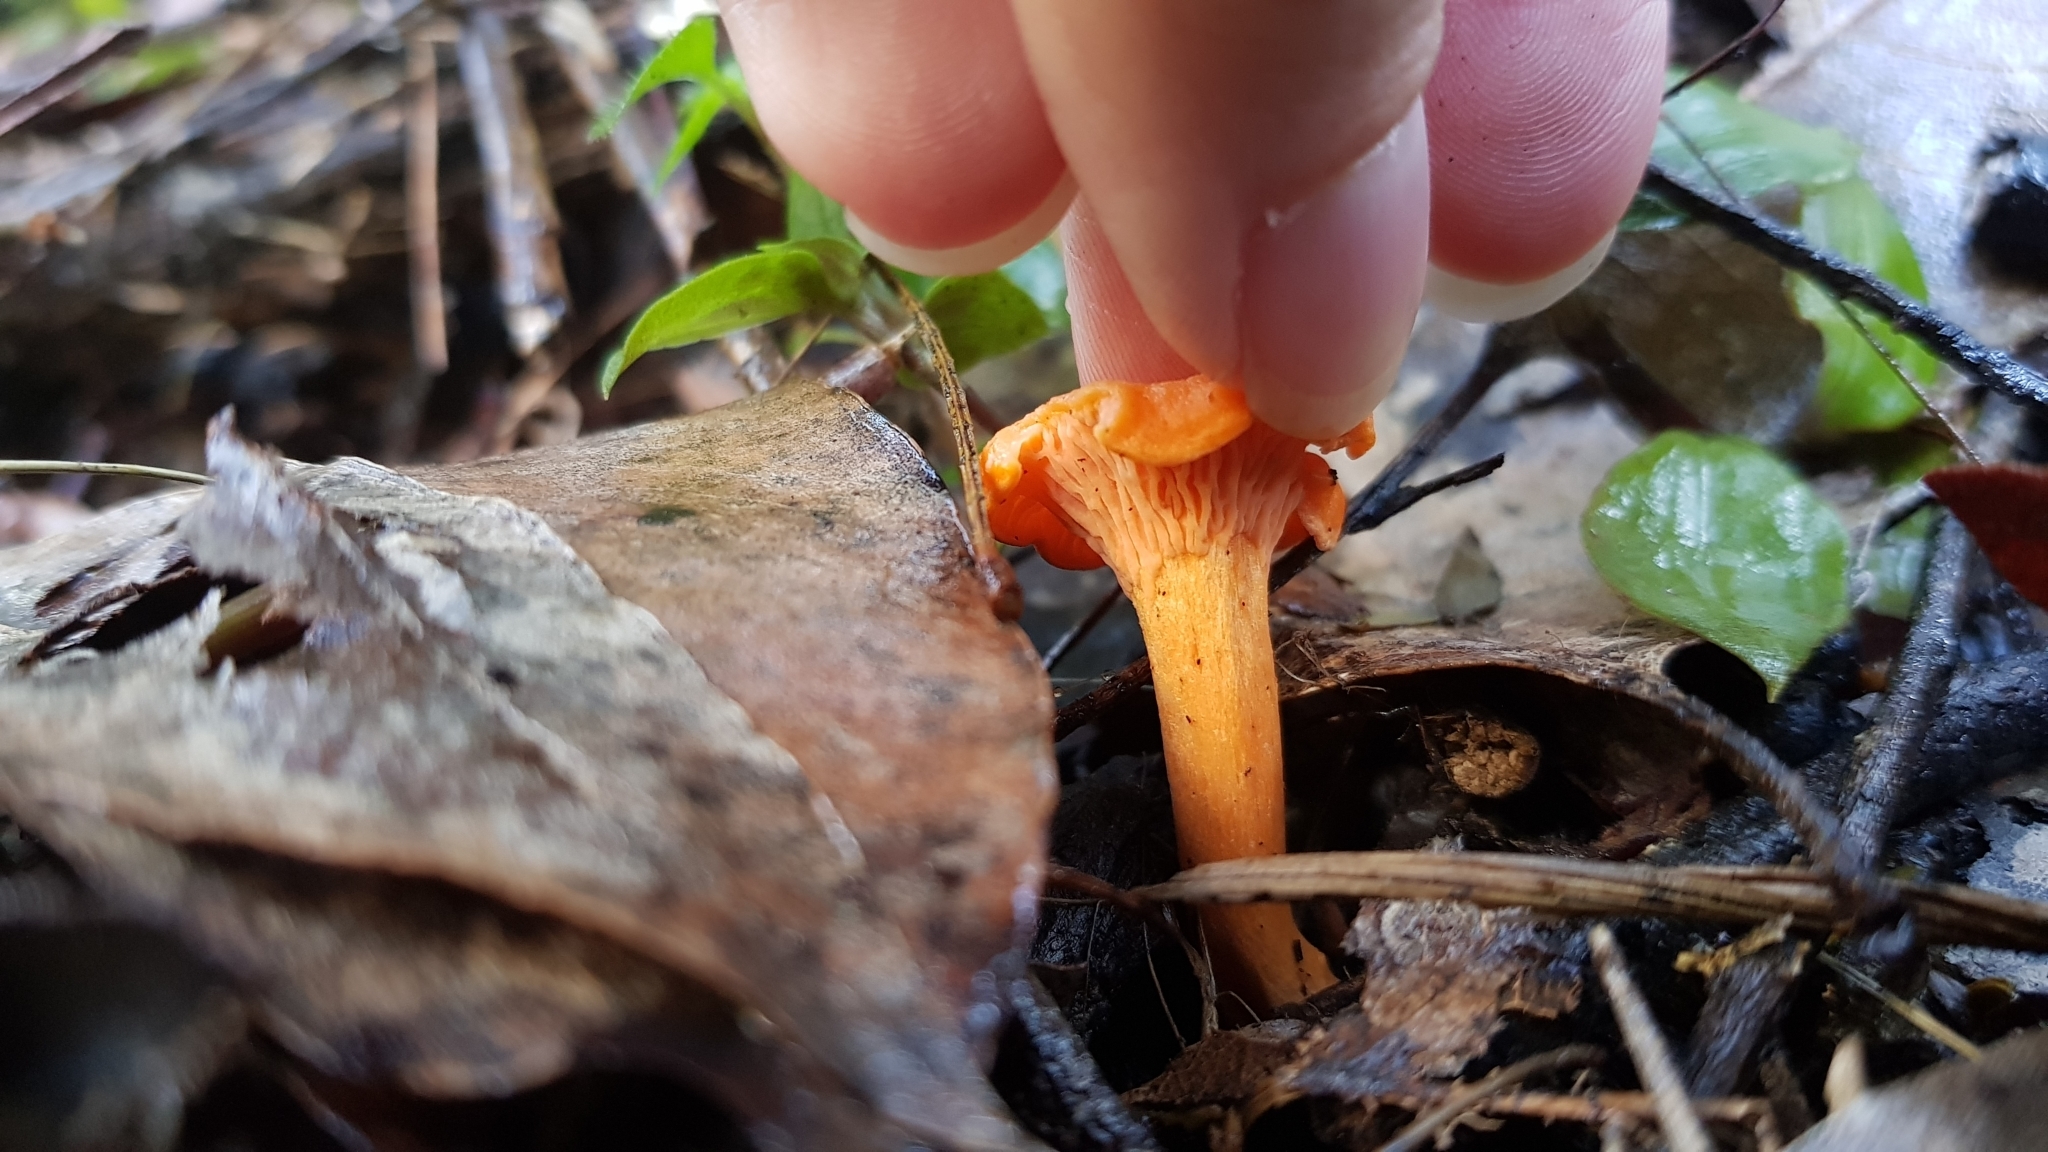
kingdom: Fungi
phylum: Basidiomycota
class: Agaricomycetes
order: Cantharellales
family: Hydnaceae
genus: Cantharellus
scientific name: Cantharellus
